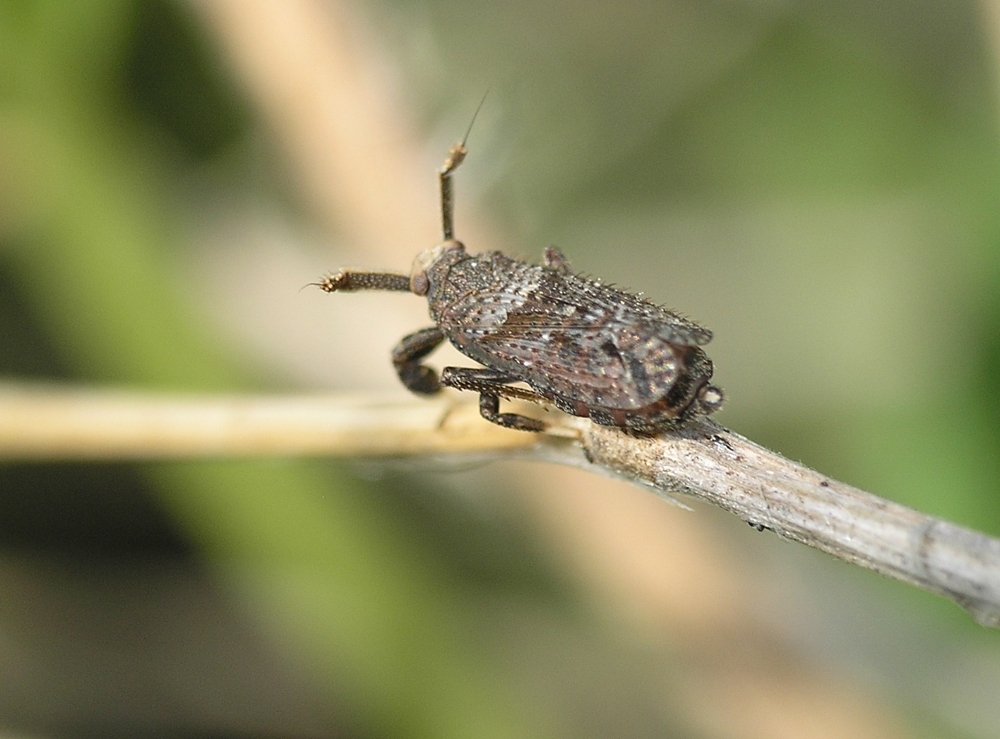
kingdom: Animalia
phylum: Arthropoda
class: Insecta
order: Hemiptera
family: Delphacidae
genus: Asiraca
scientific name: Asiraca clavicornis
